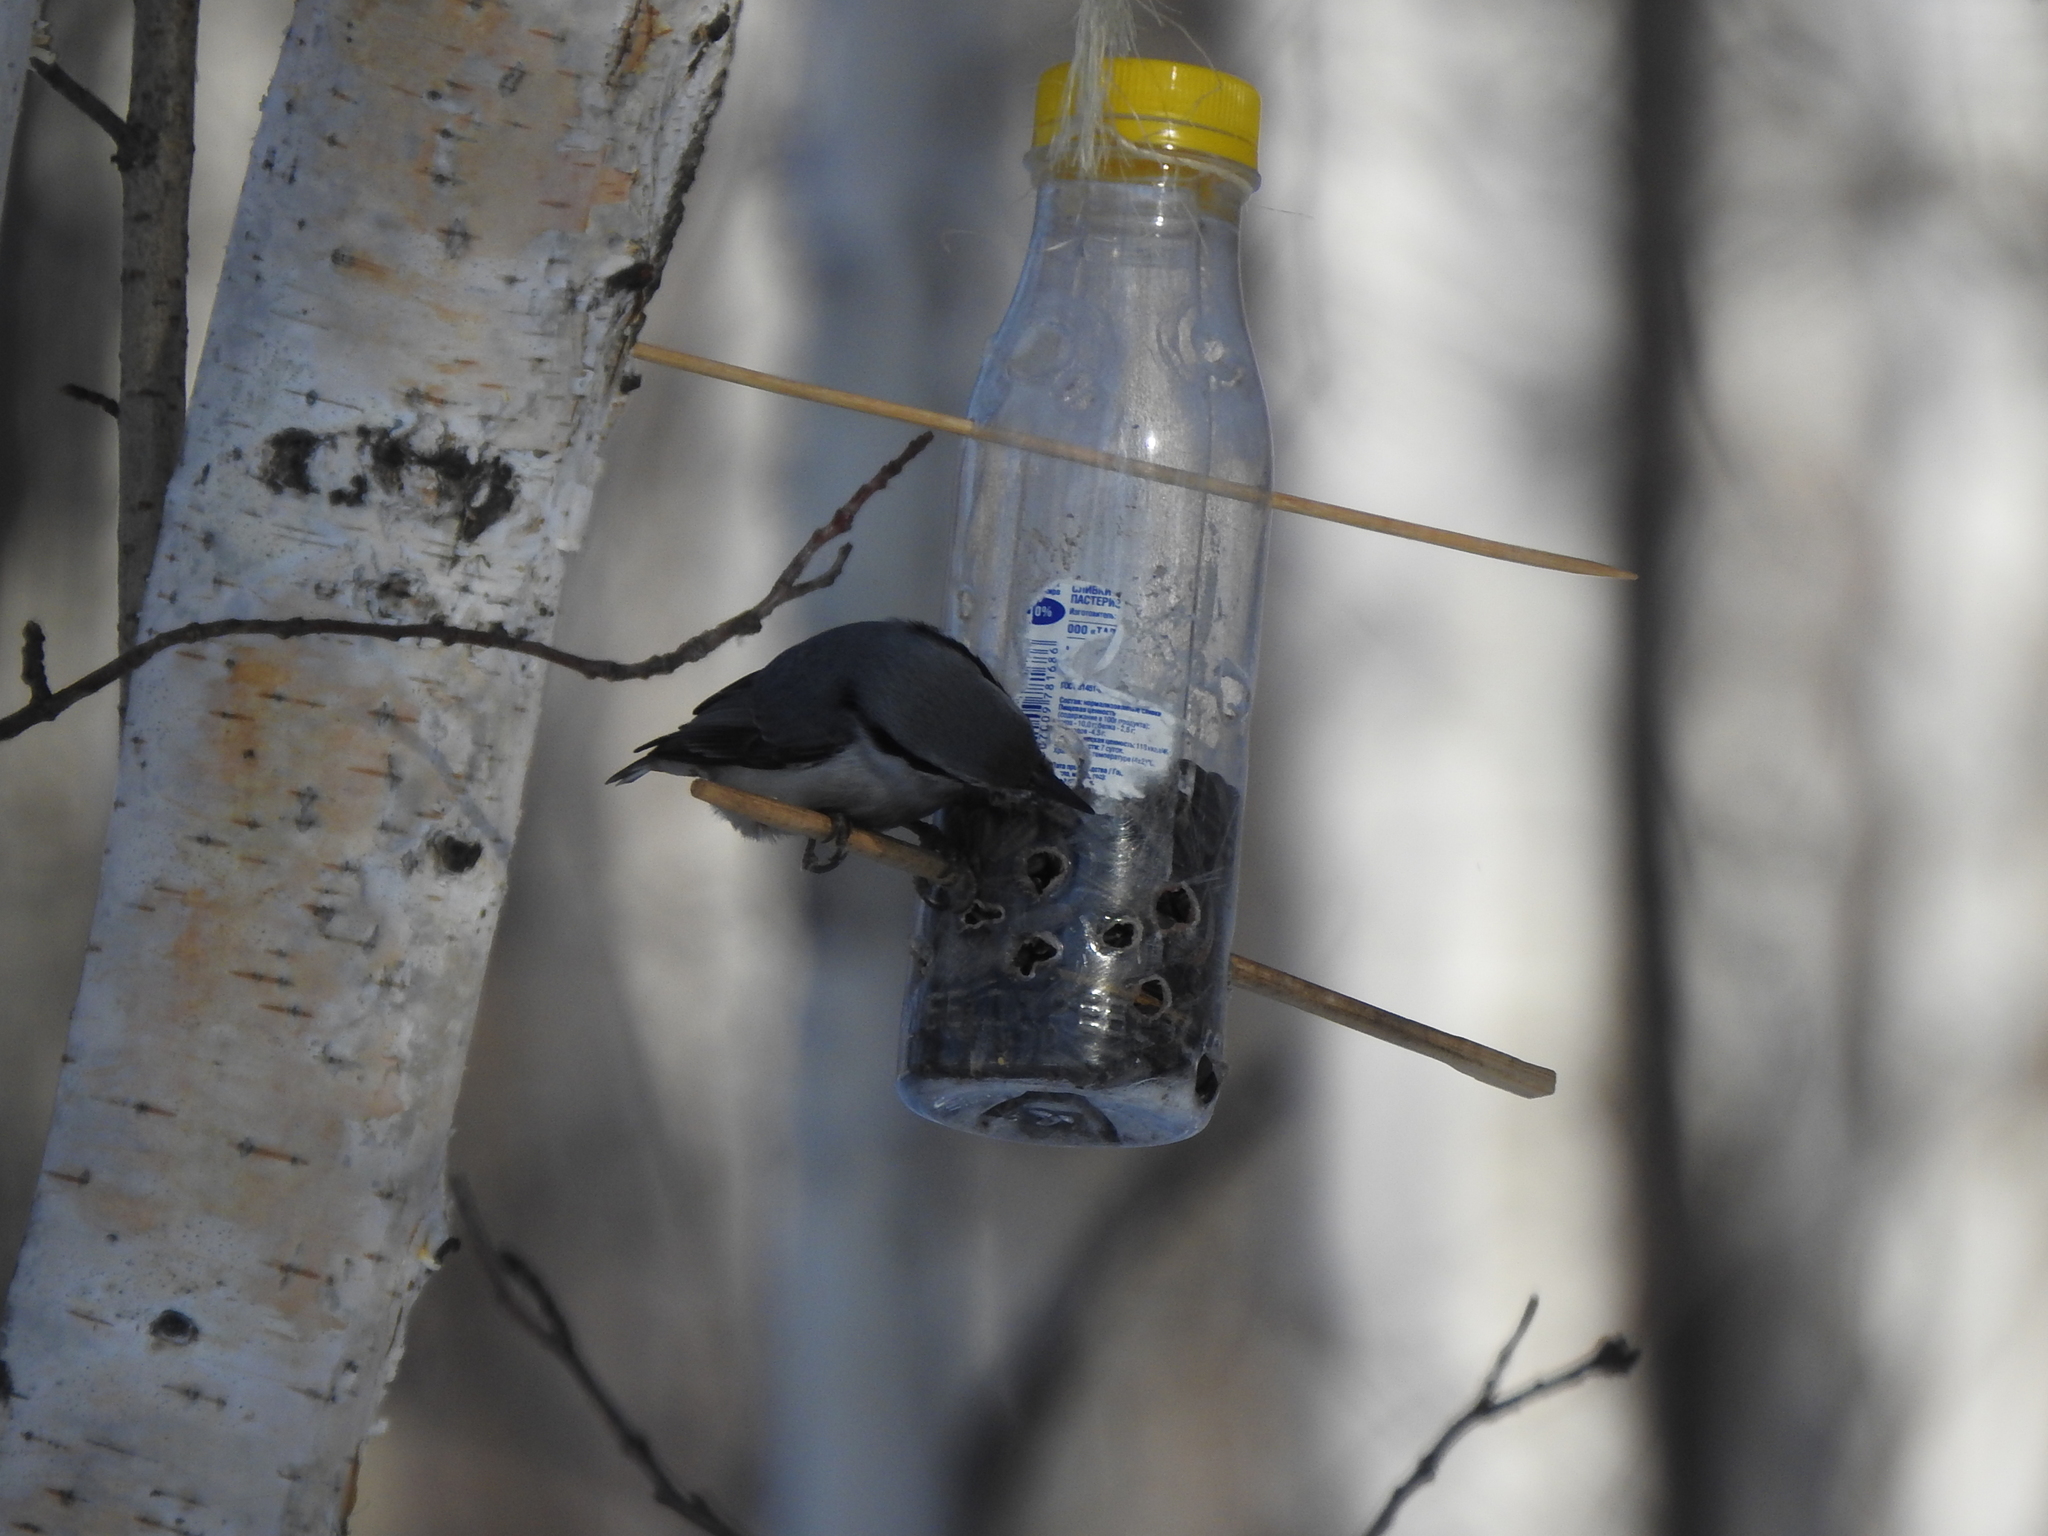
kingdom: Animalia
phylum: Chordata
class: Aves
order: Passeriformes
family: Sittidae
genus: Sitta
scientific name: Sitta europaea
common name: Eurasian nuthatch
